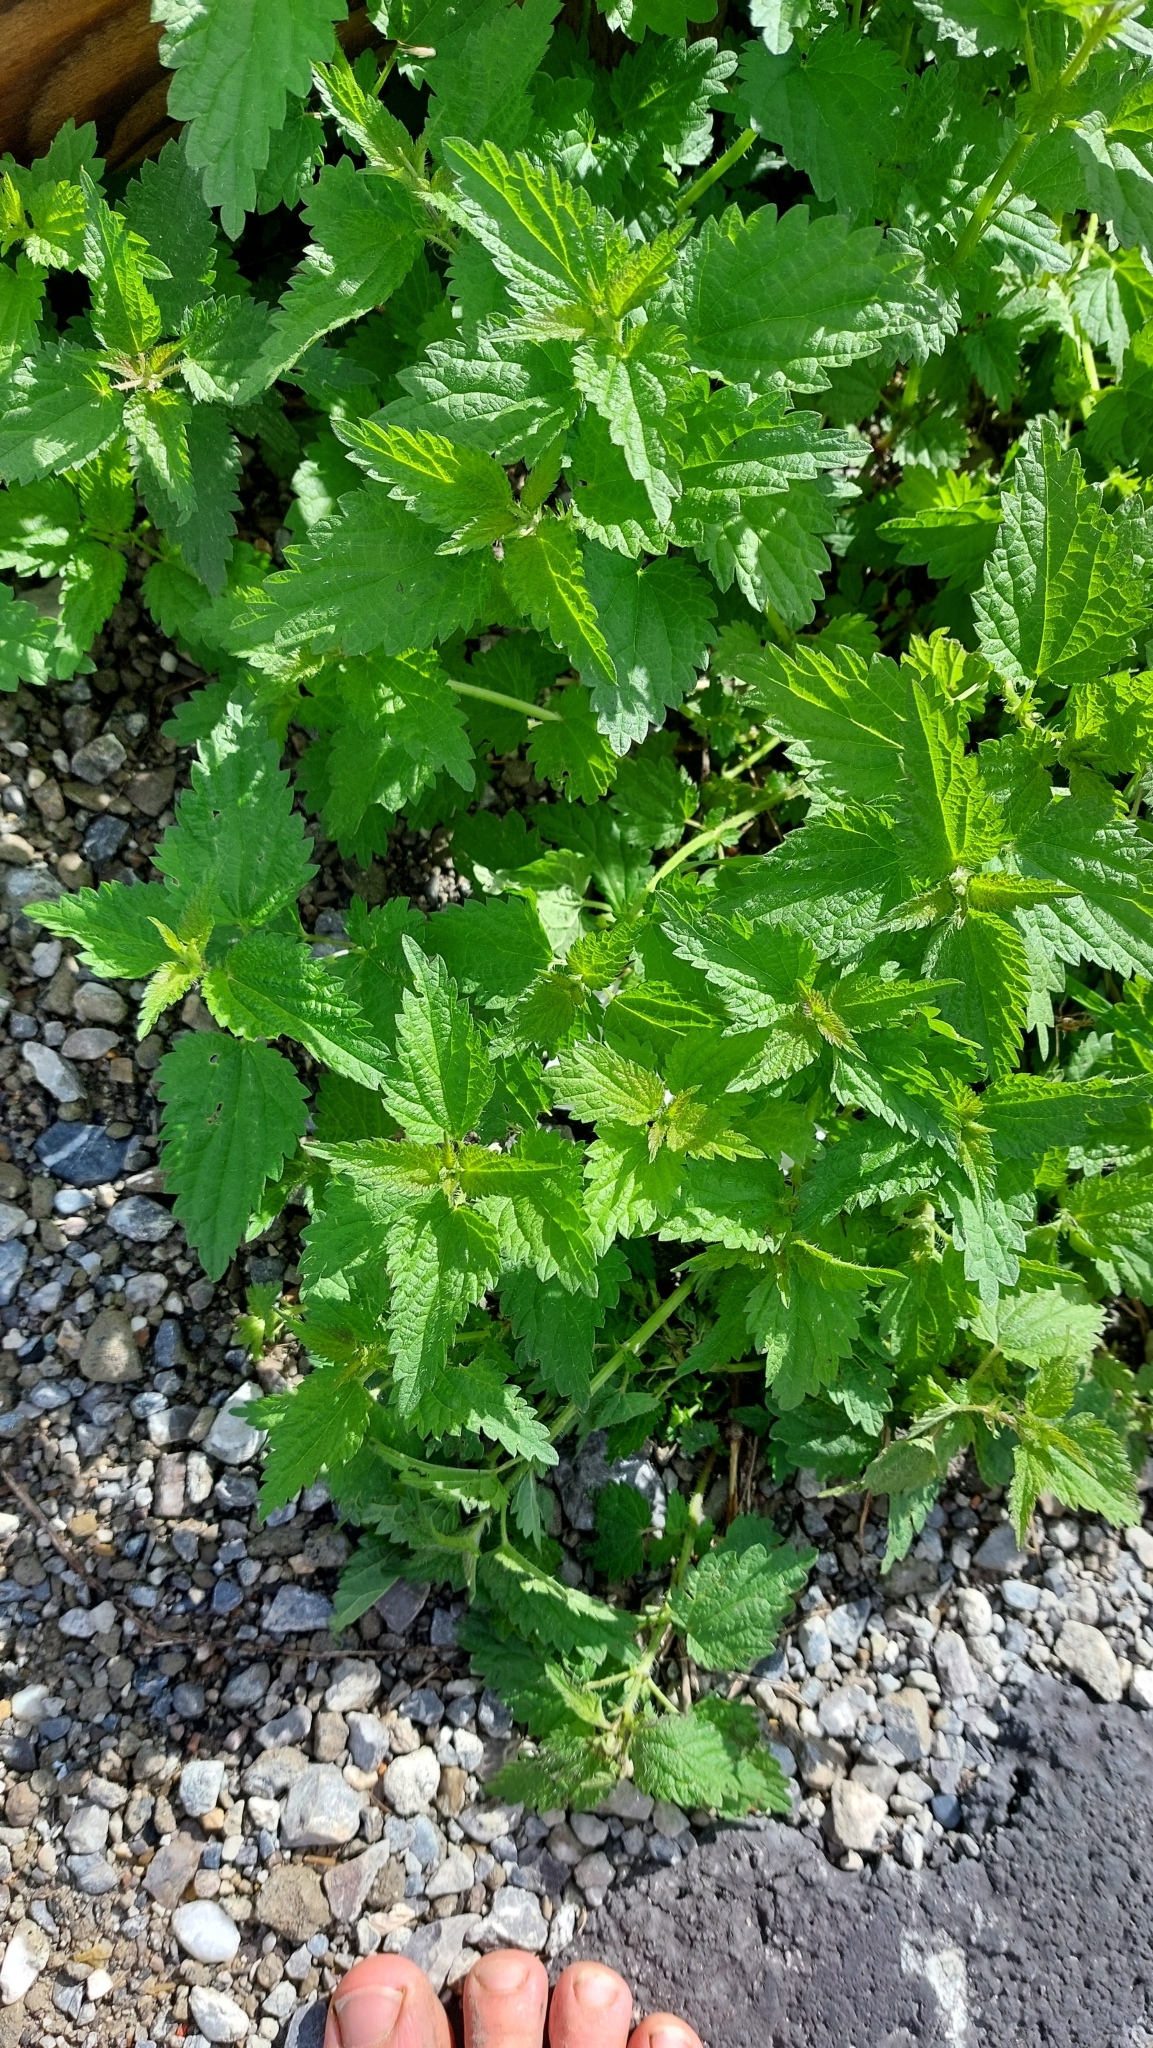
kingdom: Plantae
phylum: Tracheophyta
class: Magnoliopsida
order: Rosales
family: Urticaceae
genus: Urtica
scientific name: Urtica dioica
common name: Common nettle
